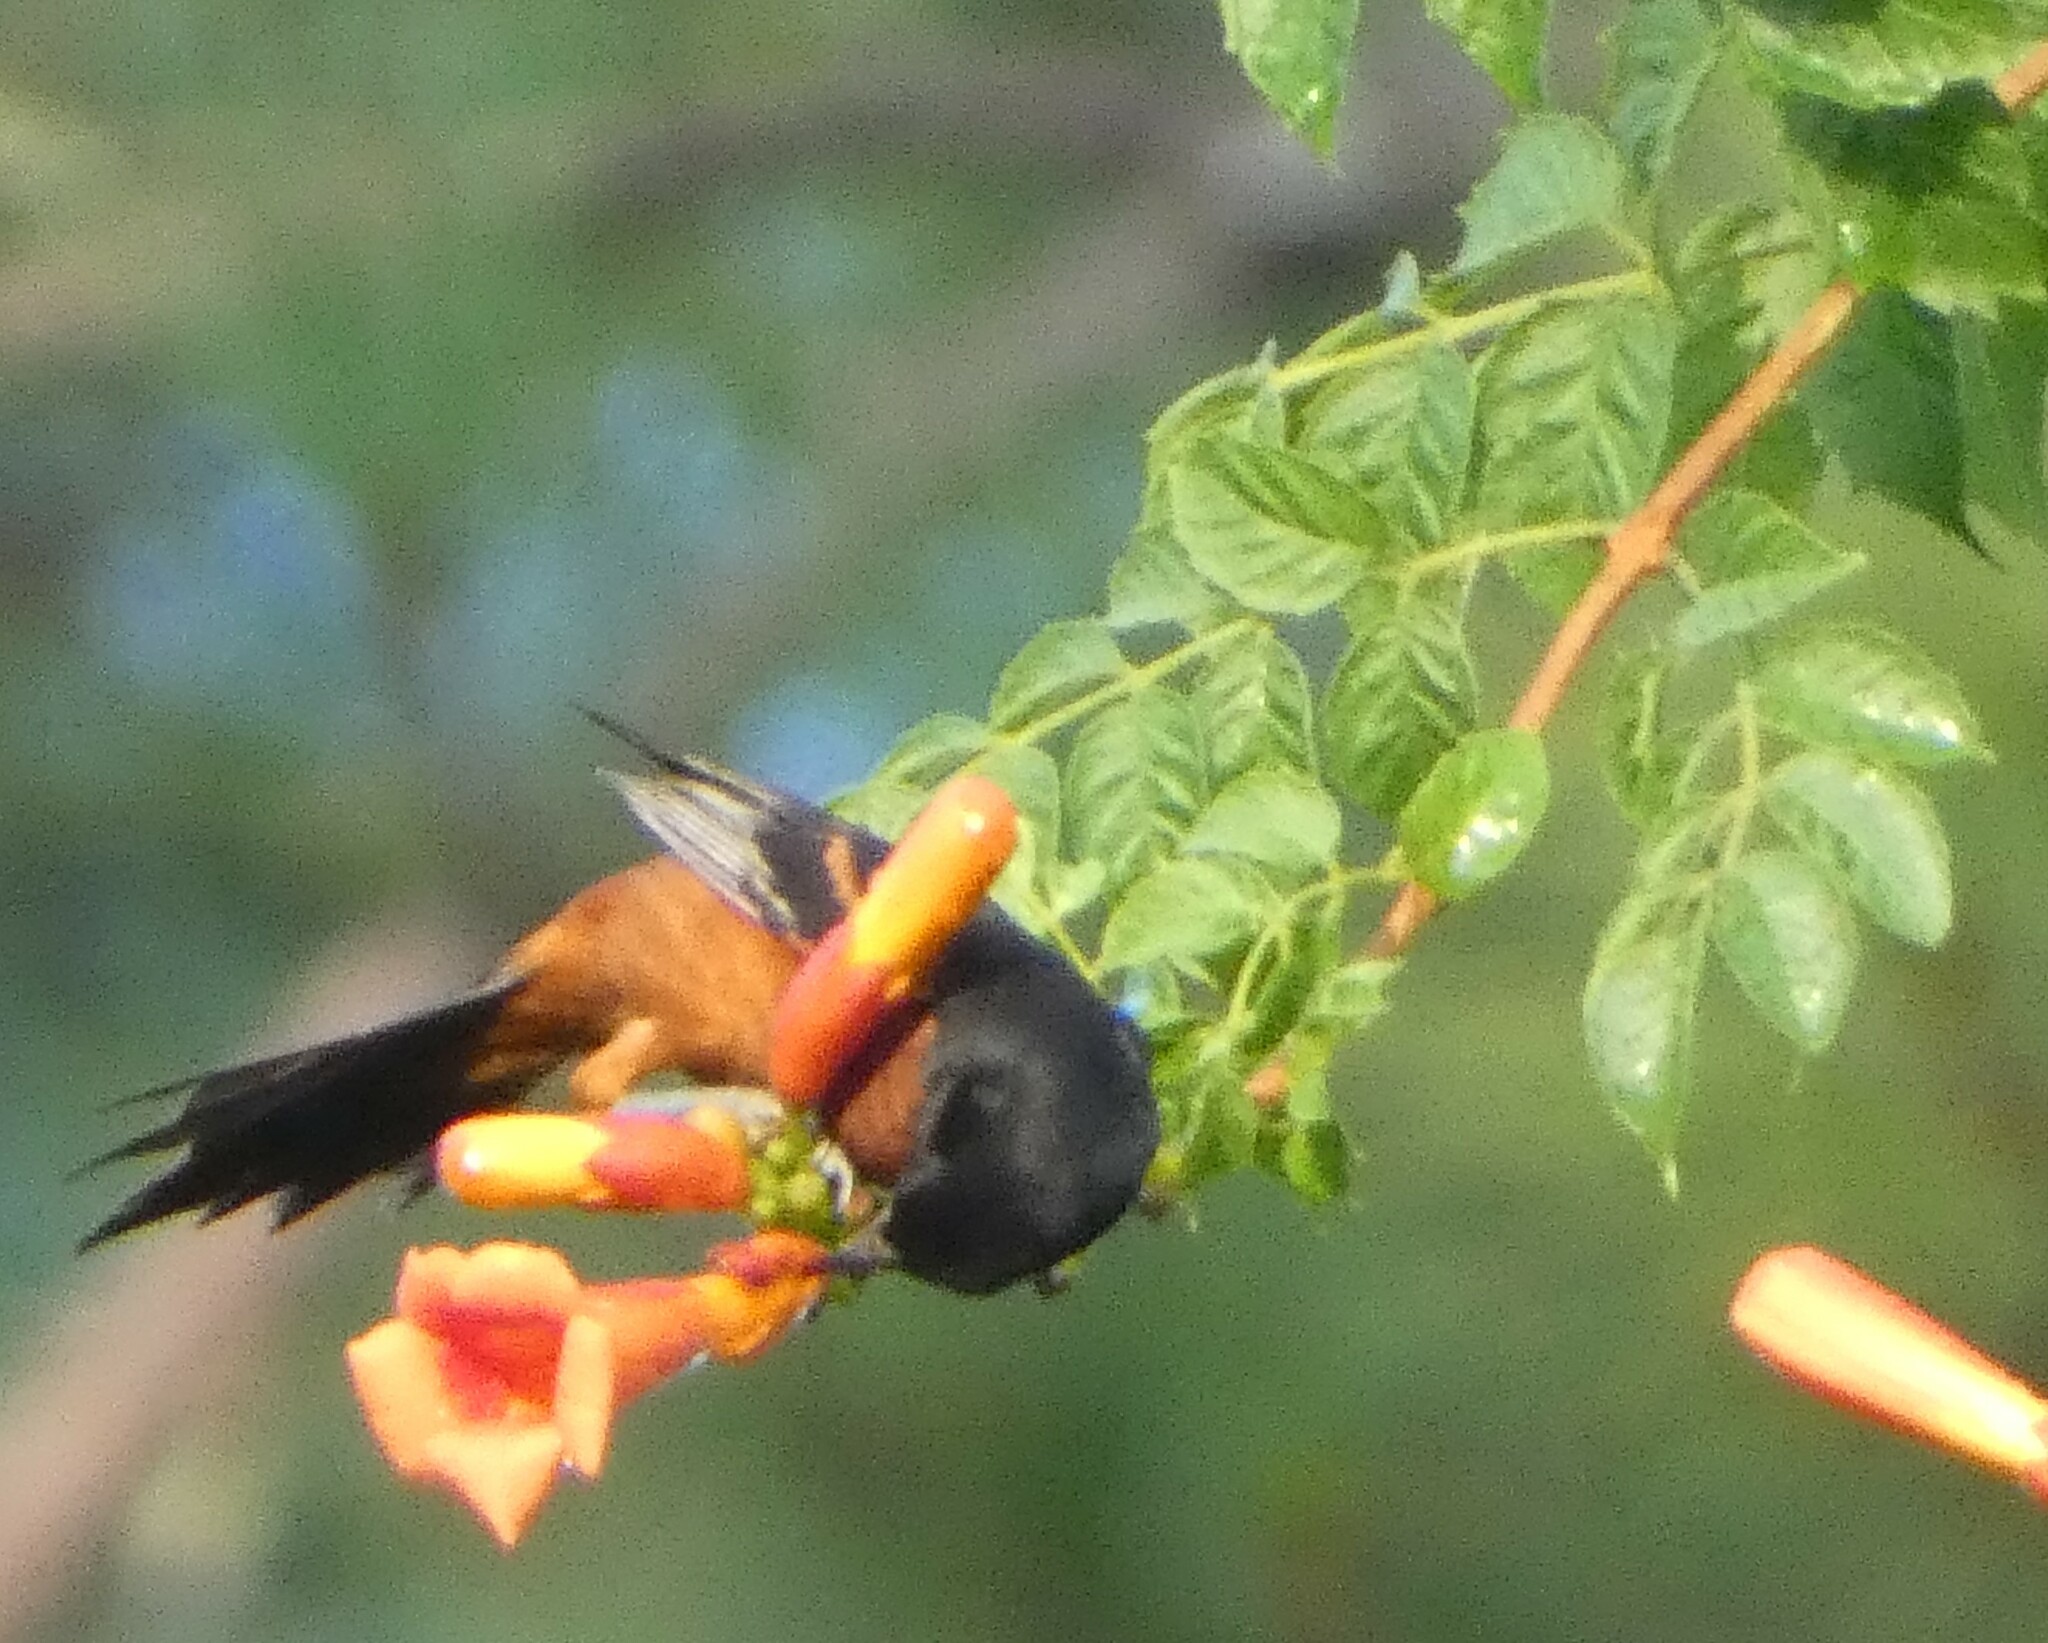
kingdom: Animalia
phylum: Chordata
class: Aves
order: Passeriformes
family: Icteridae
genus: Icterus
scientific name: Icterus spurius
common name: Orchard oriole
